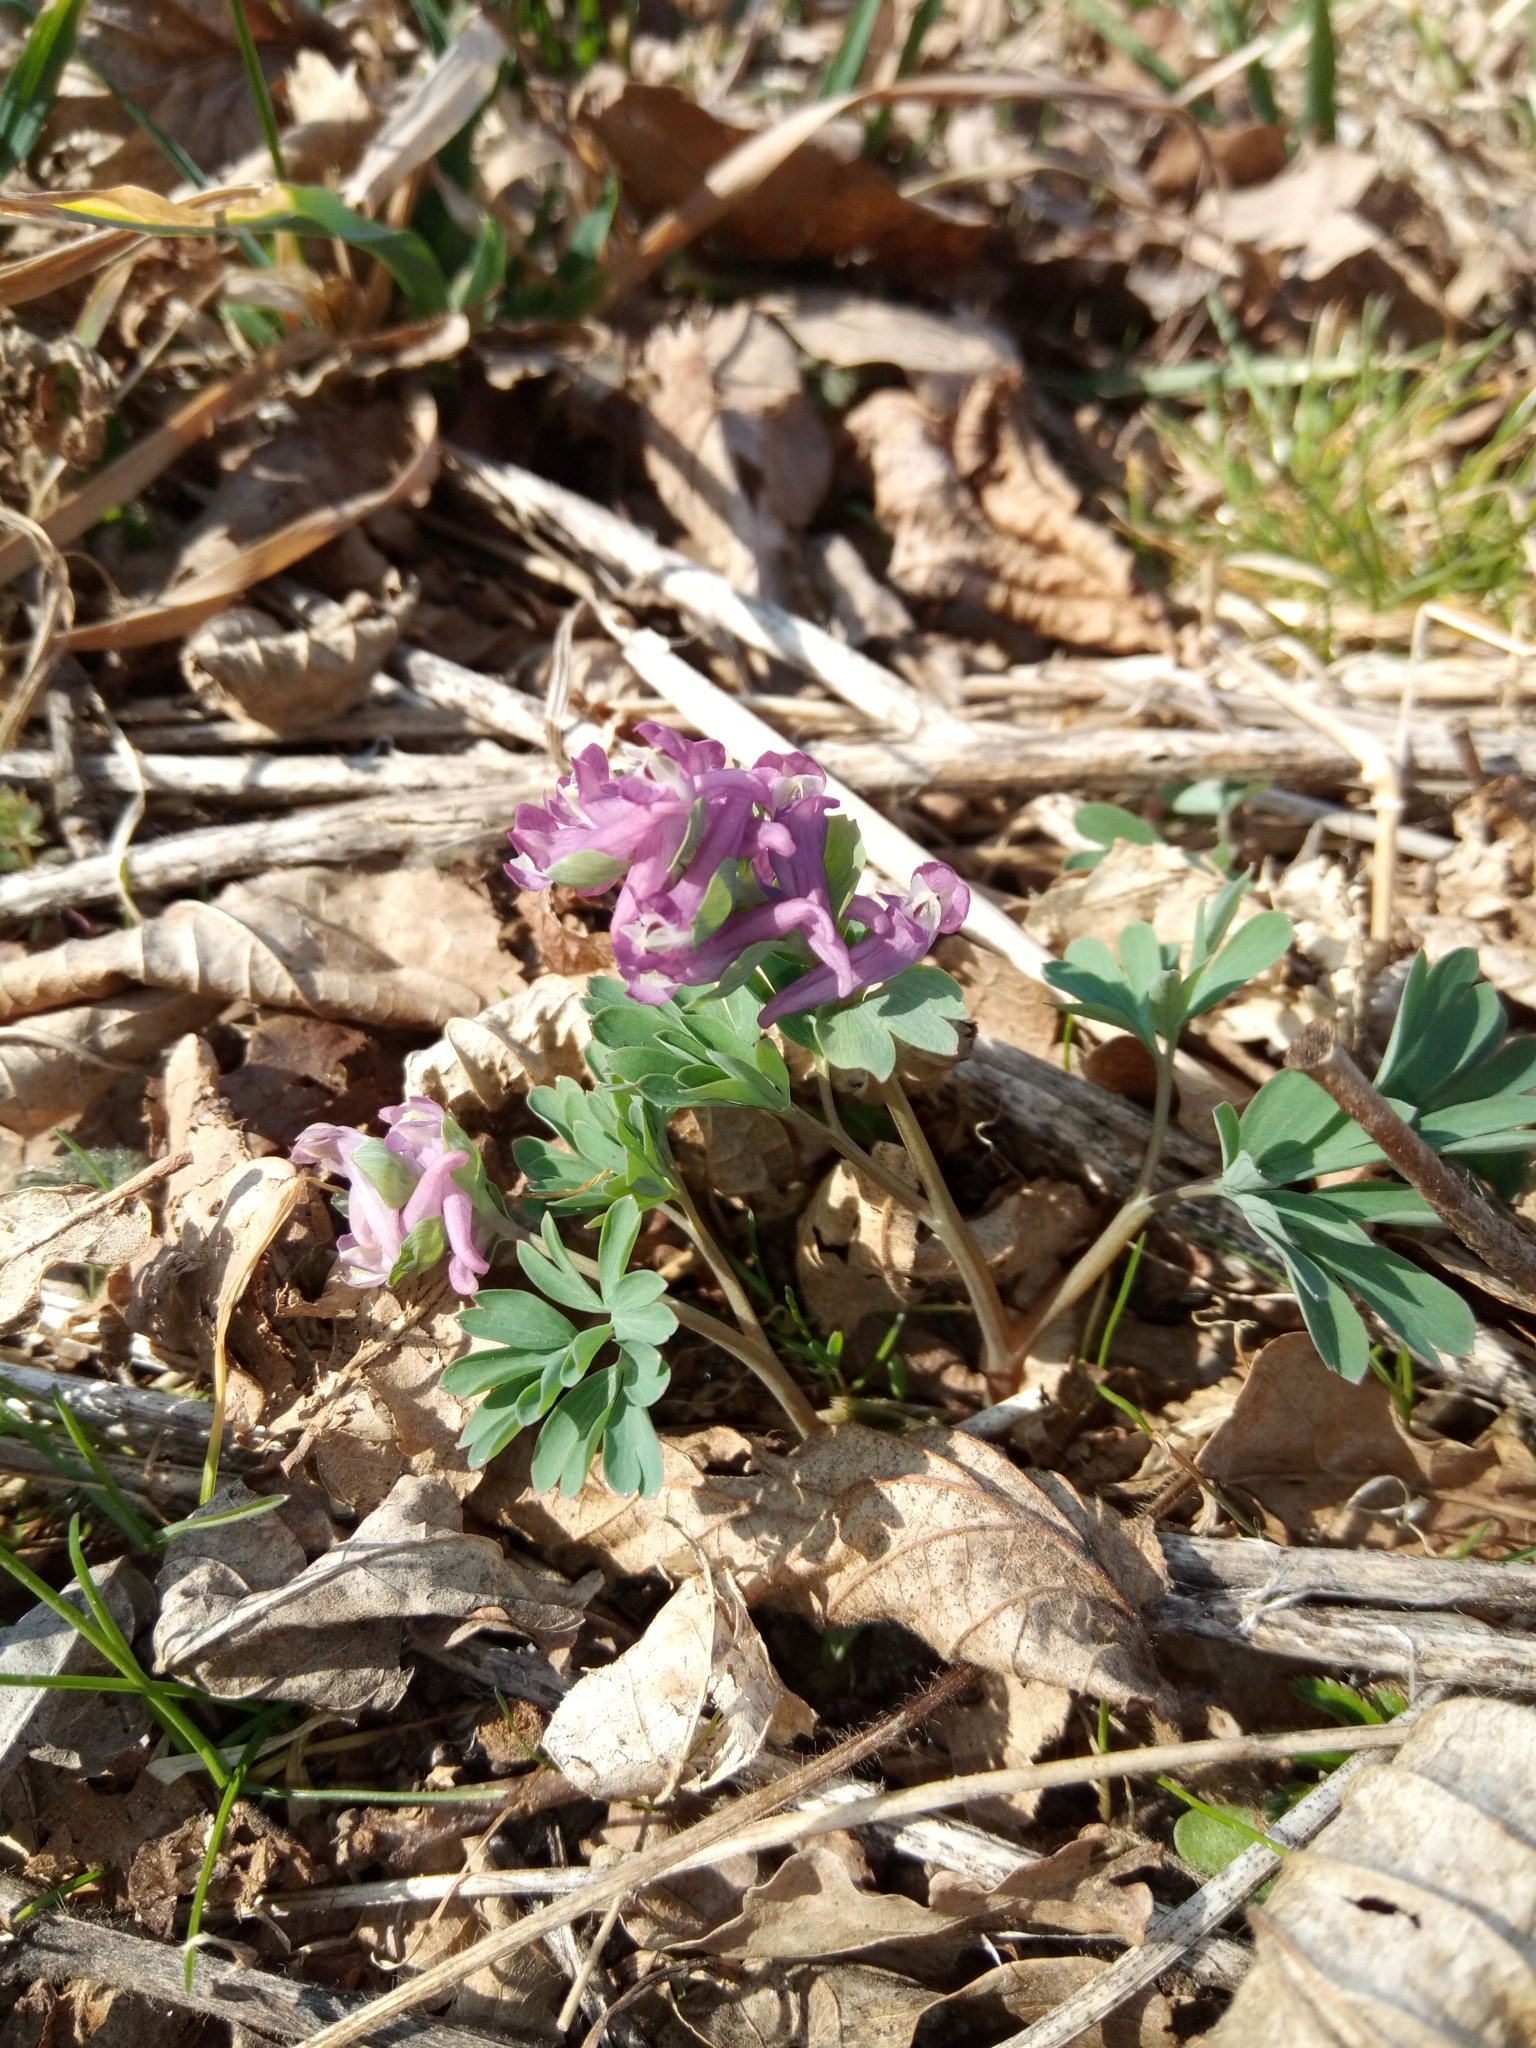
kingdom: Plantae
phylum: Tracheophyta
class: Magnoliopsida
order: Ranunculales
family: Papaveraceae
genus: Corydalis
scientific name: Corydalis cava
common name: Hollowroot
